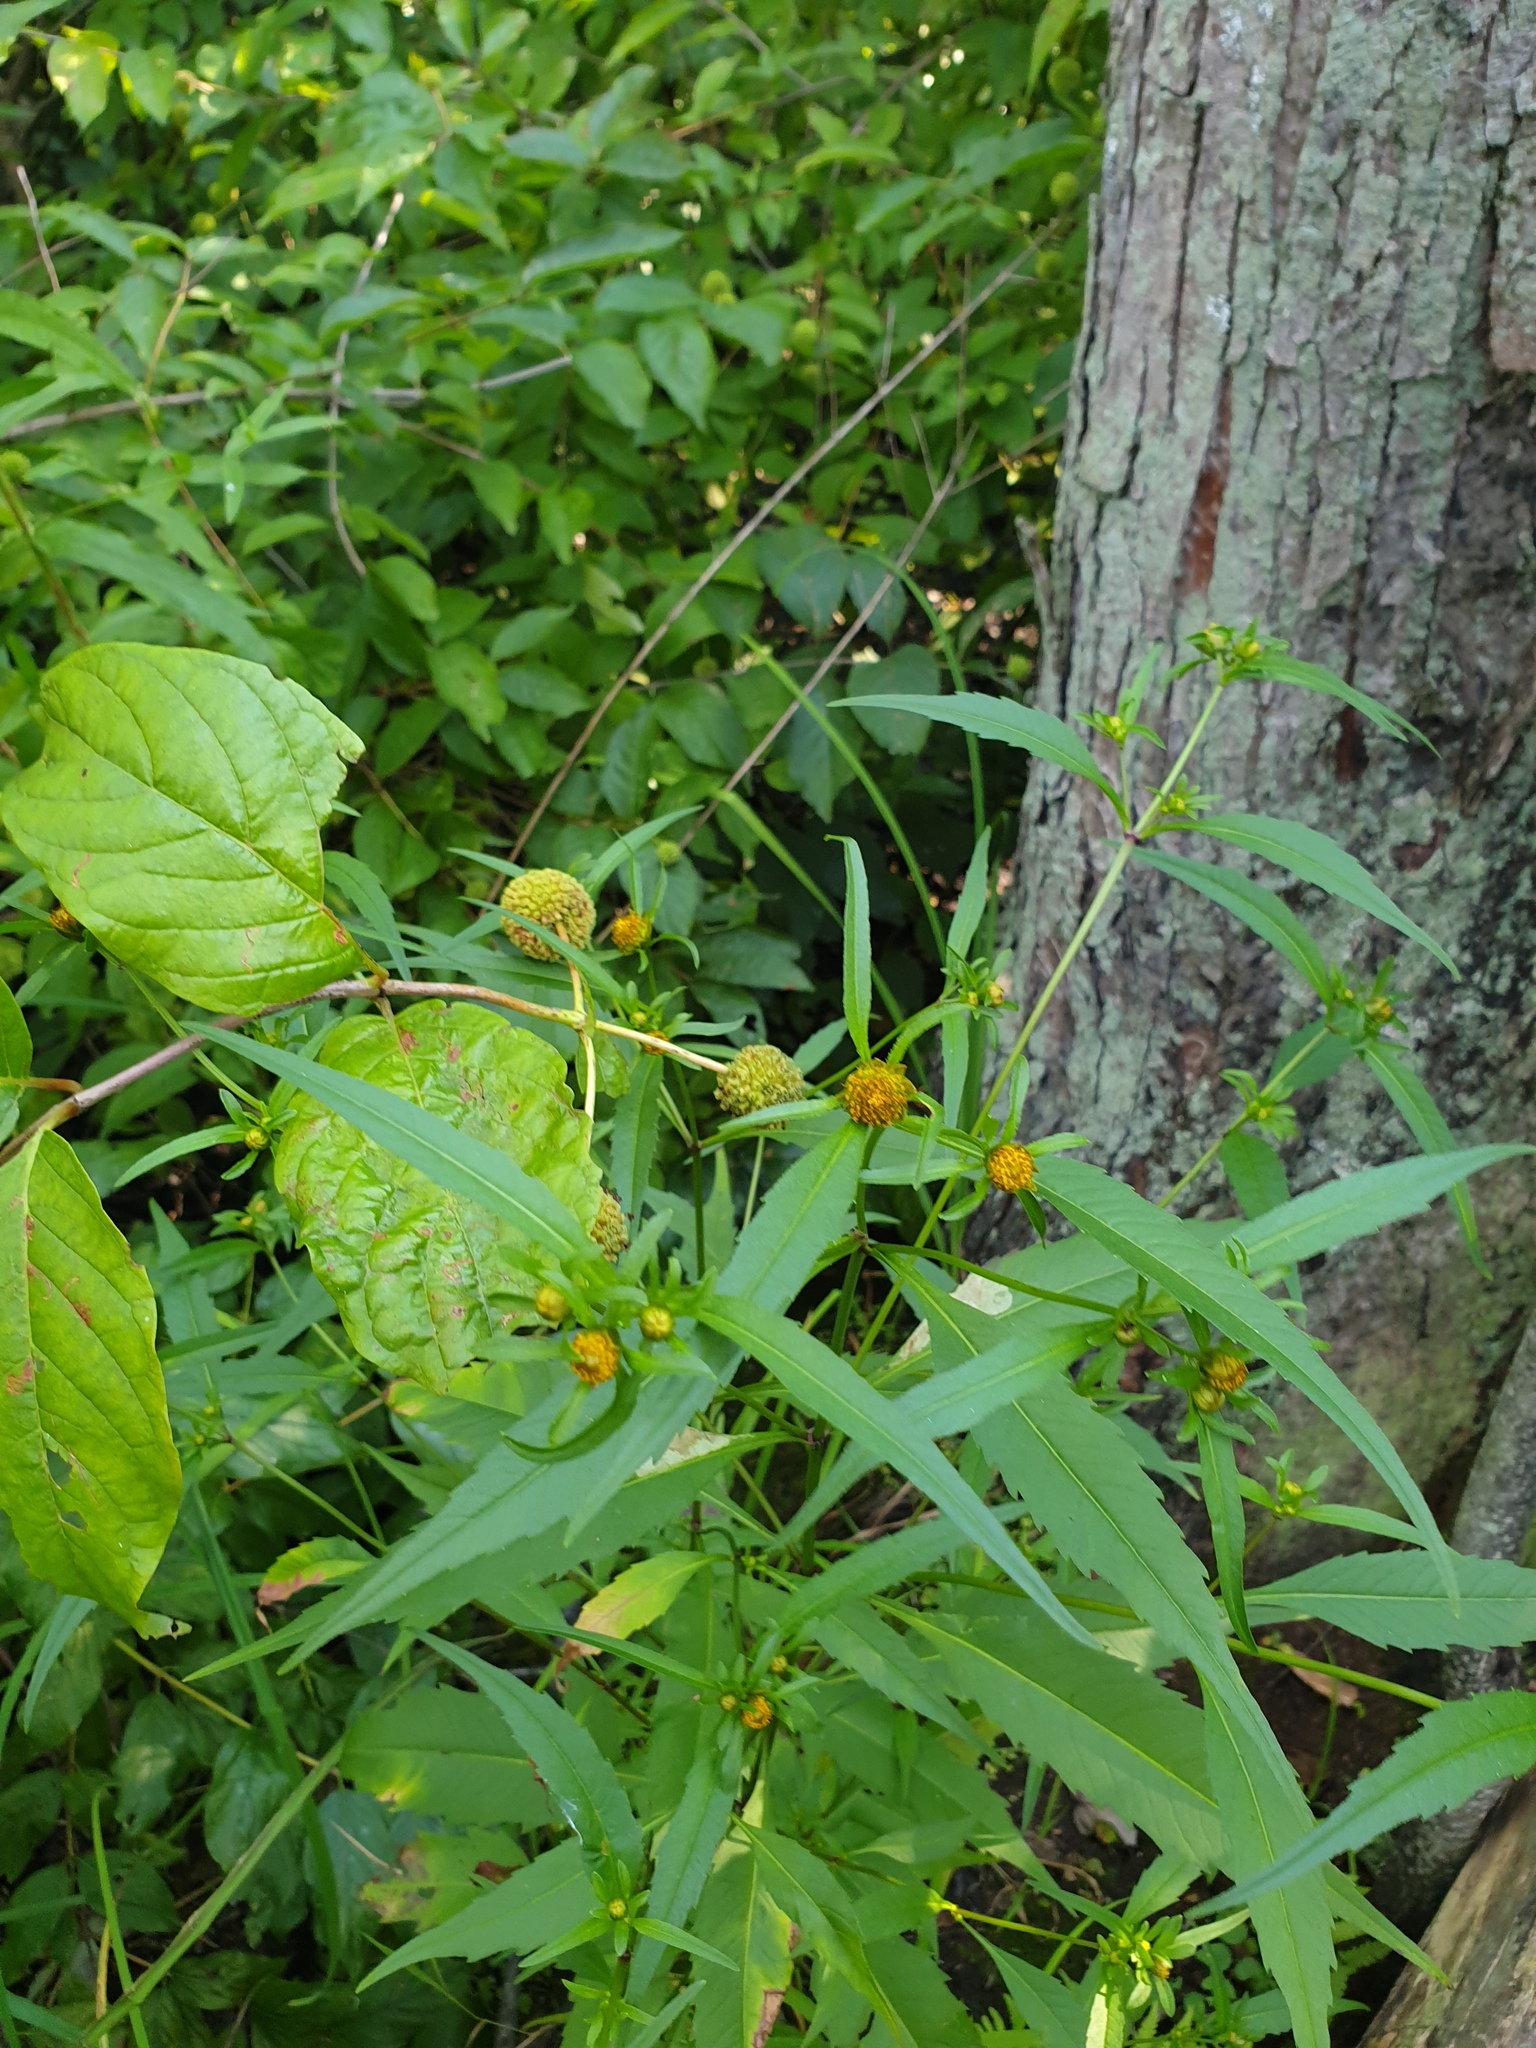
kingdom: Plantae
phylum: Tracheophyta
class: Magnoliopsida
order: Asterales
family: Asteraceae
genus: Bidens
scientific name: Bidens connata
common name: London bur-marigold
